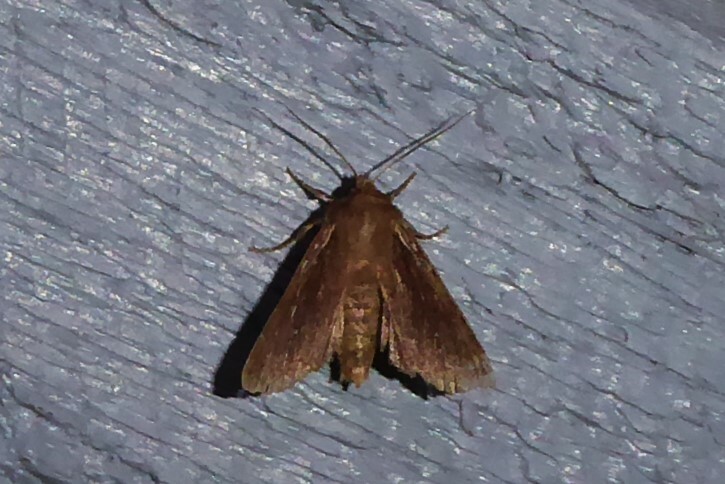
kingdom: Animalia
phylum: Arthropoda
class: Insecta
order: Lepidoptera
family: Noctuidae
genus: Ichneutica
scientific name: Ichneutica
